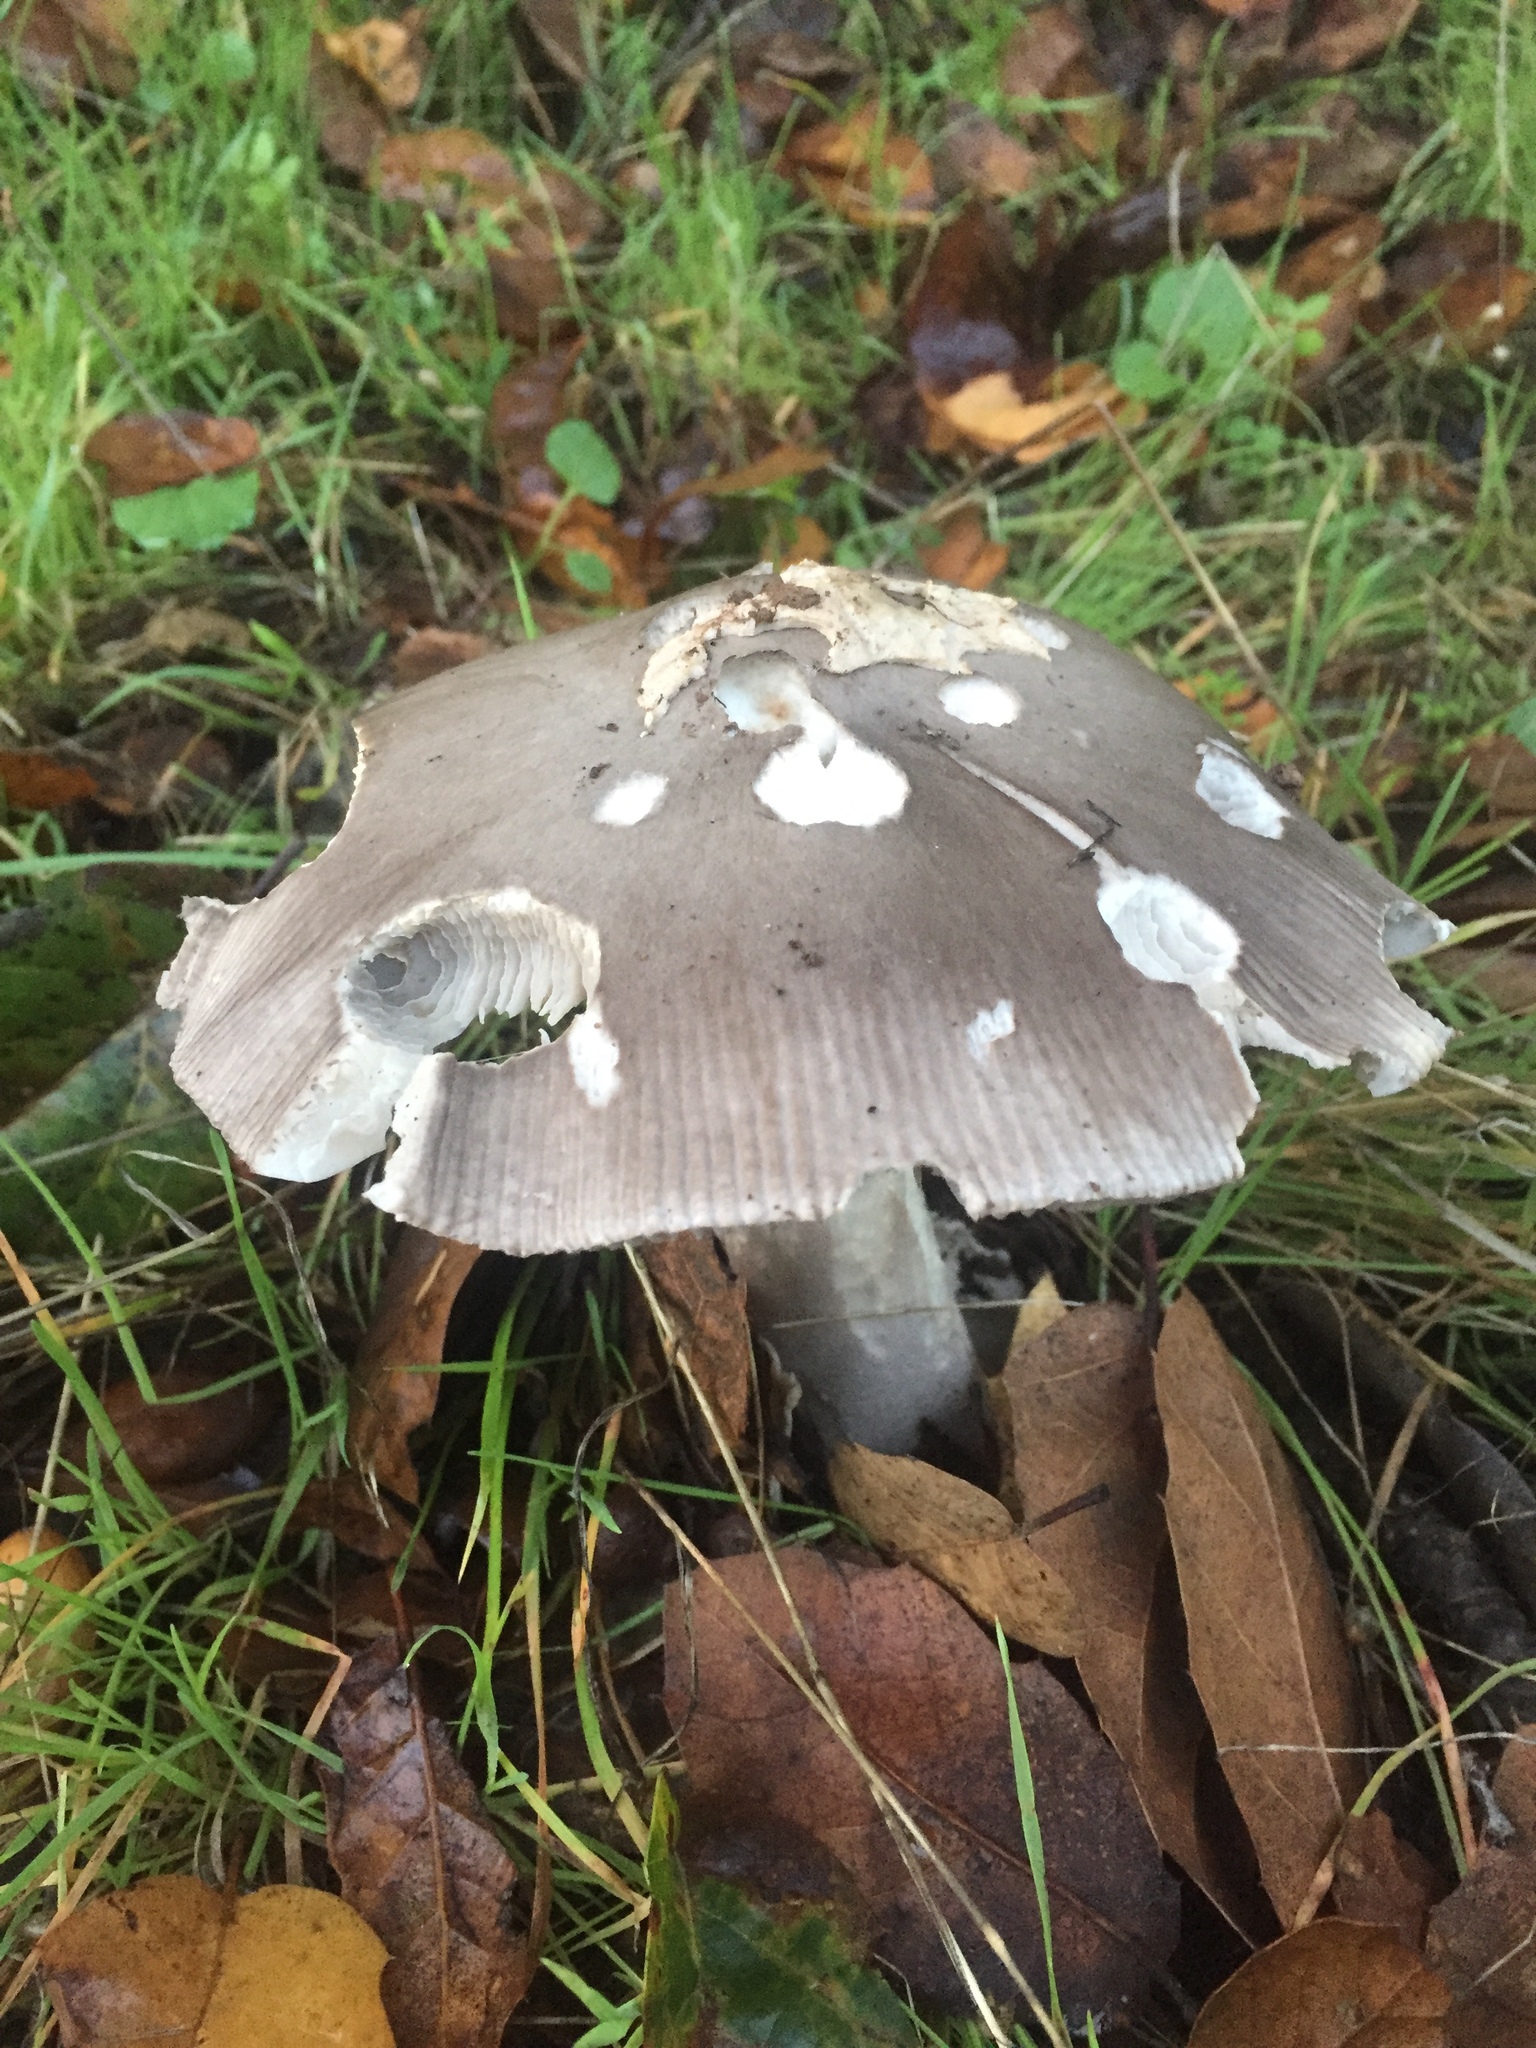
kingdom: Fungi
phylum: Basidiomycota
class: Agaricomycetes
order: Agaricales
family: Amanitaceae
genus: Amanita
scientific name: Amanita vaginata
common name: Grisette
